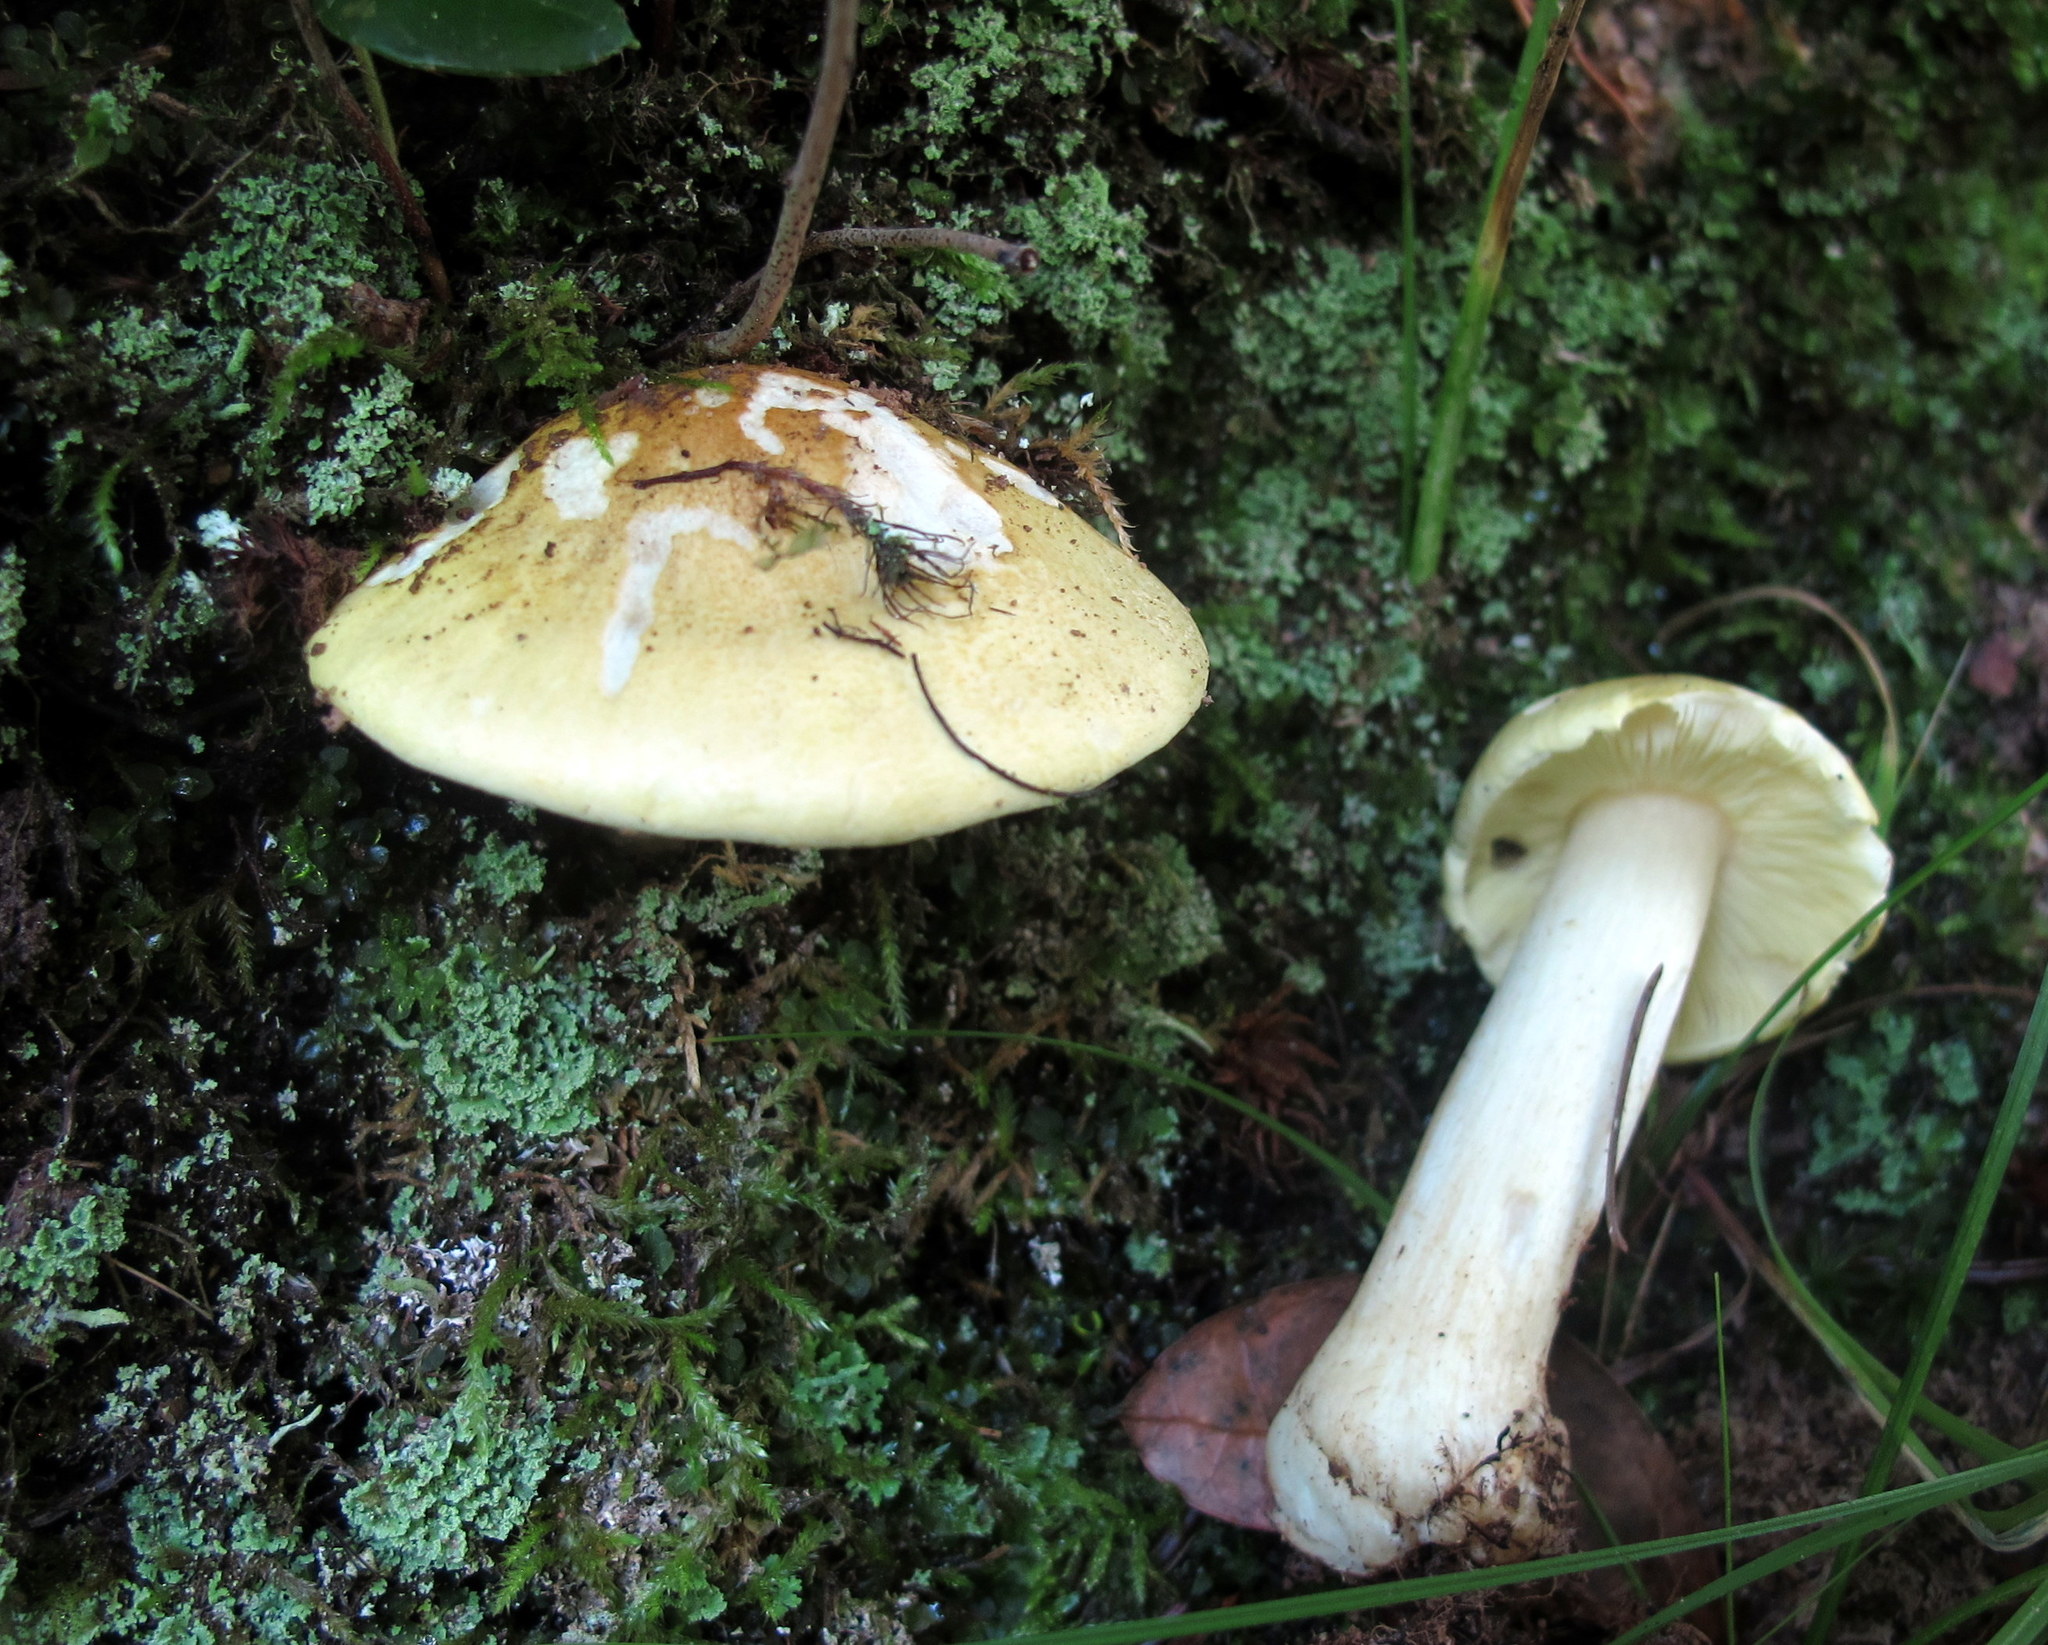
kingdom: Fungi
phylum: Basidiomycota
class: Agaricomycetes
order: Agaricales
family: Tricholomataceae
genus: Tricholoma
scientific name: Tricholoma intermedium
